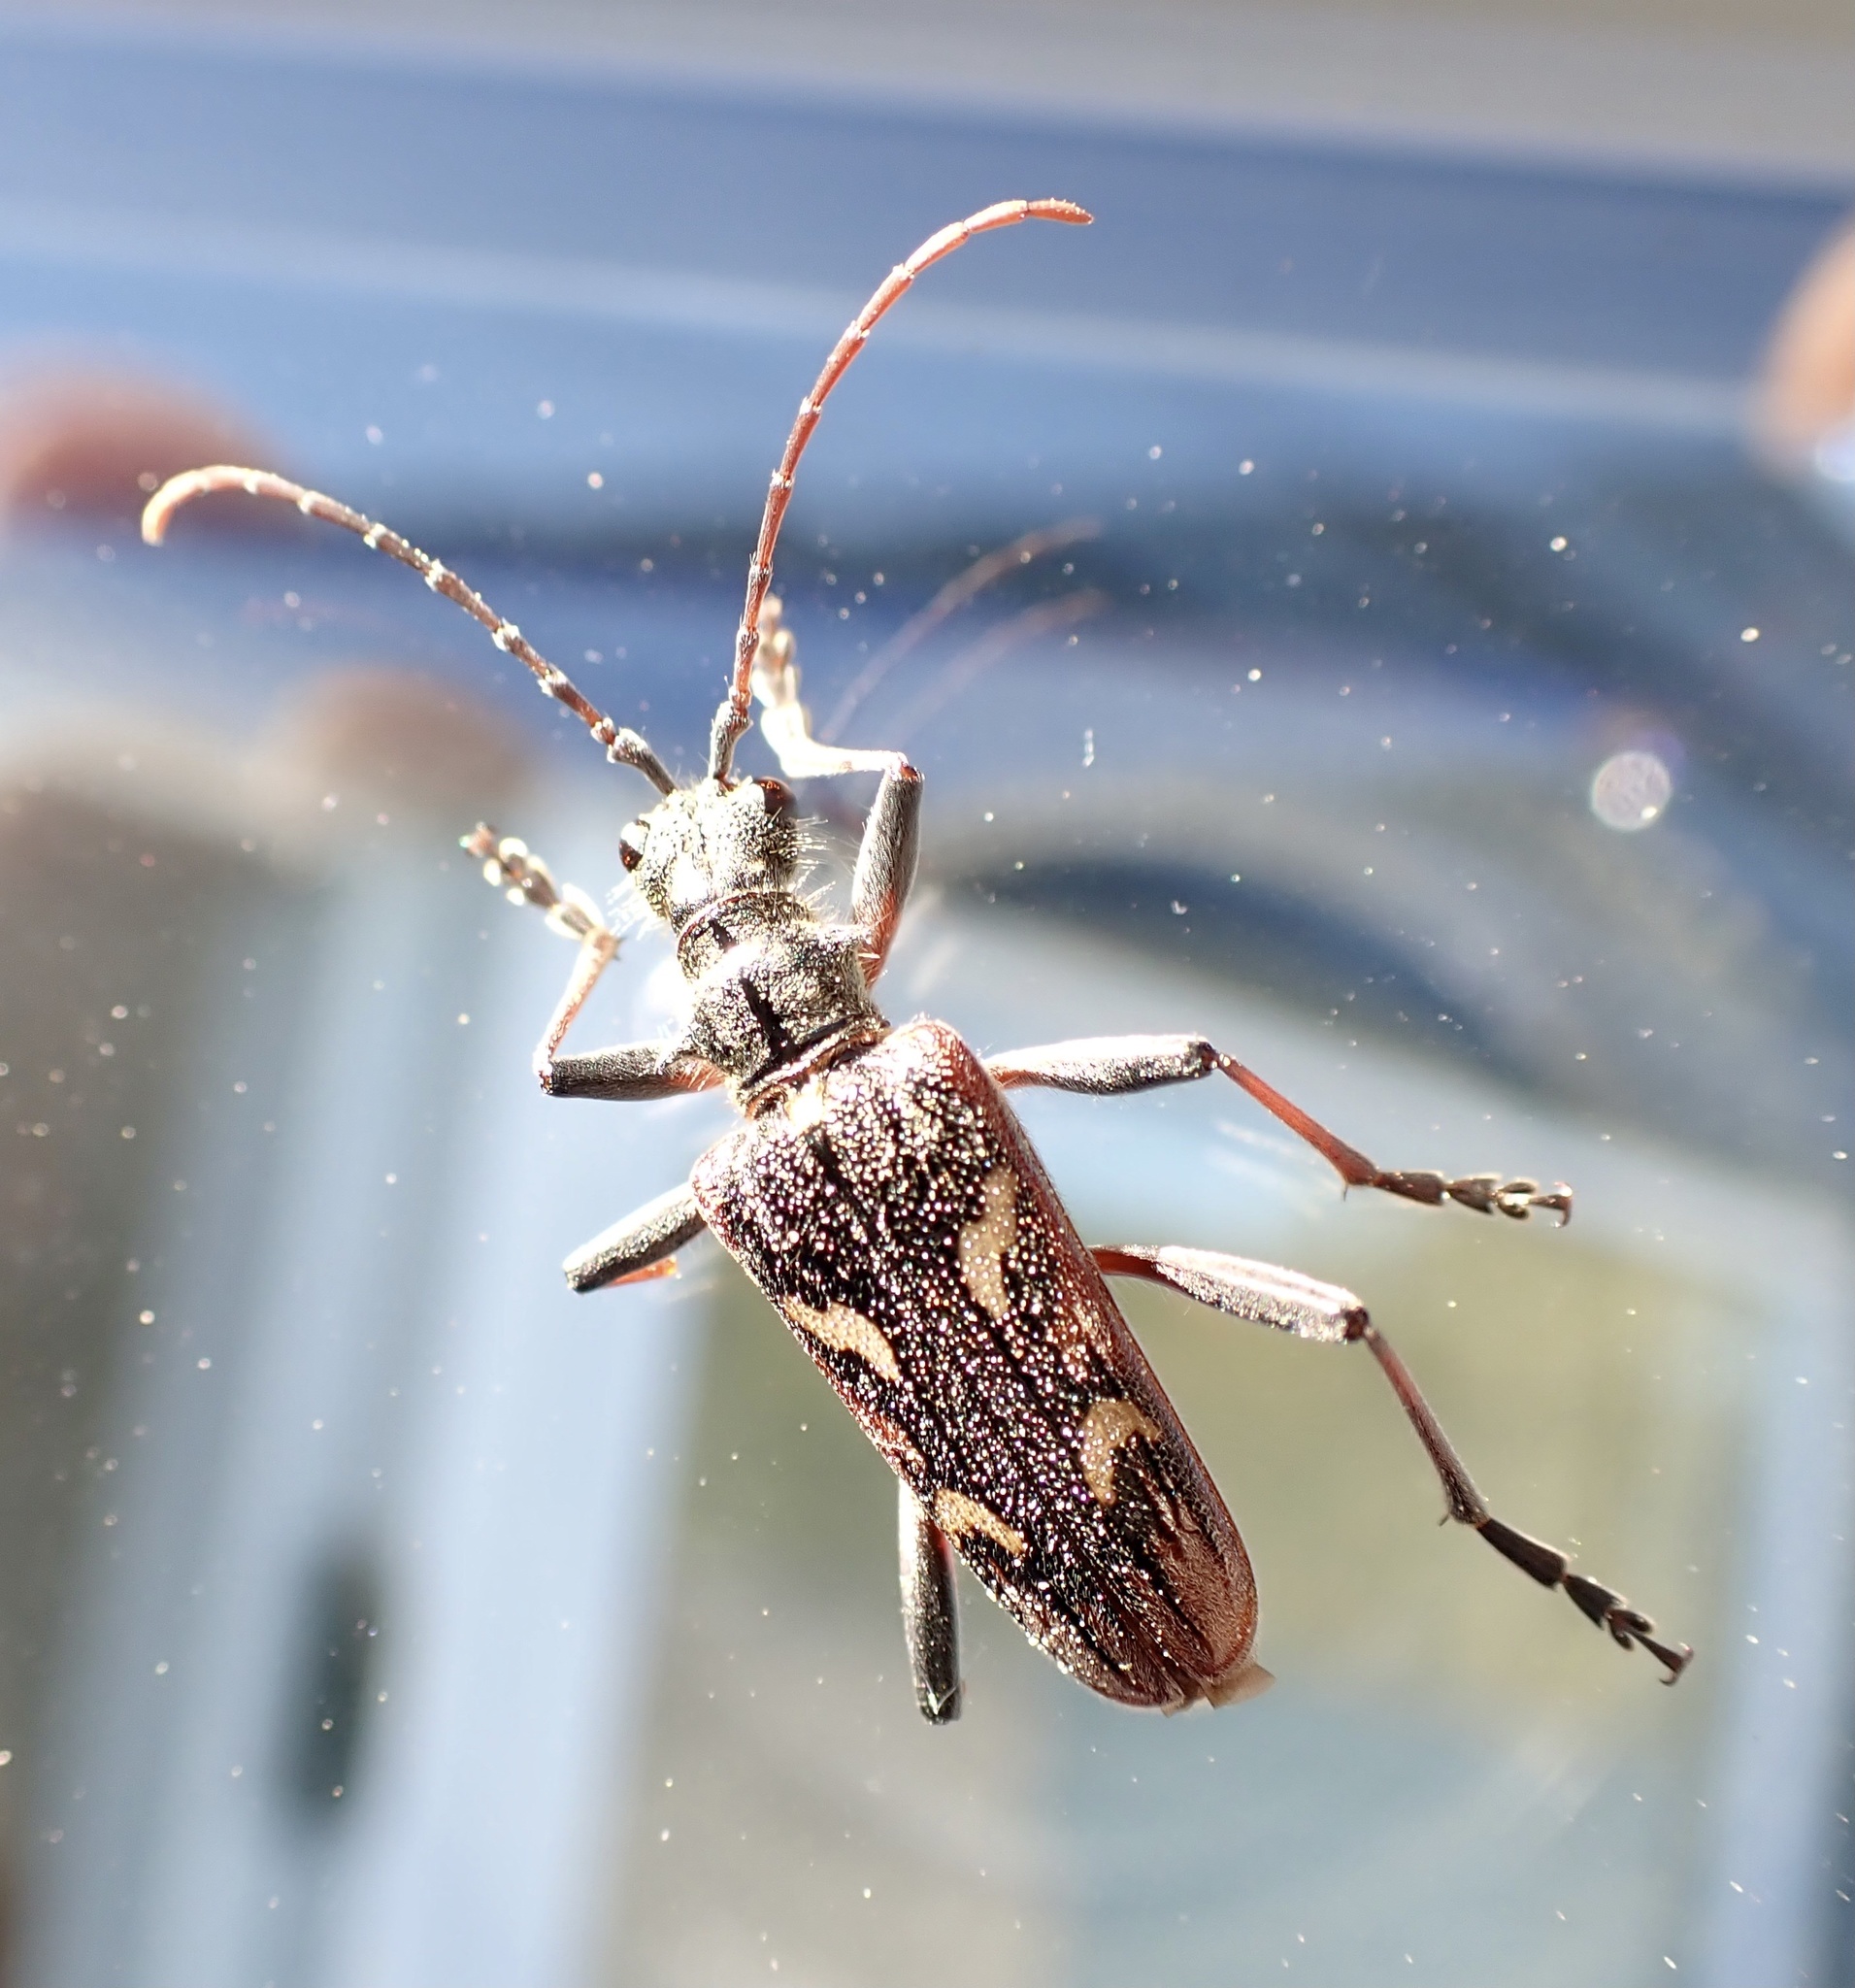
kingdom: Animalia
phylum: Arthropoda
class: Insecta
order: Coleoptera
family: Cerambycidae
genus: Rhagium
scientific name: Rhagium bifasciatum
